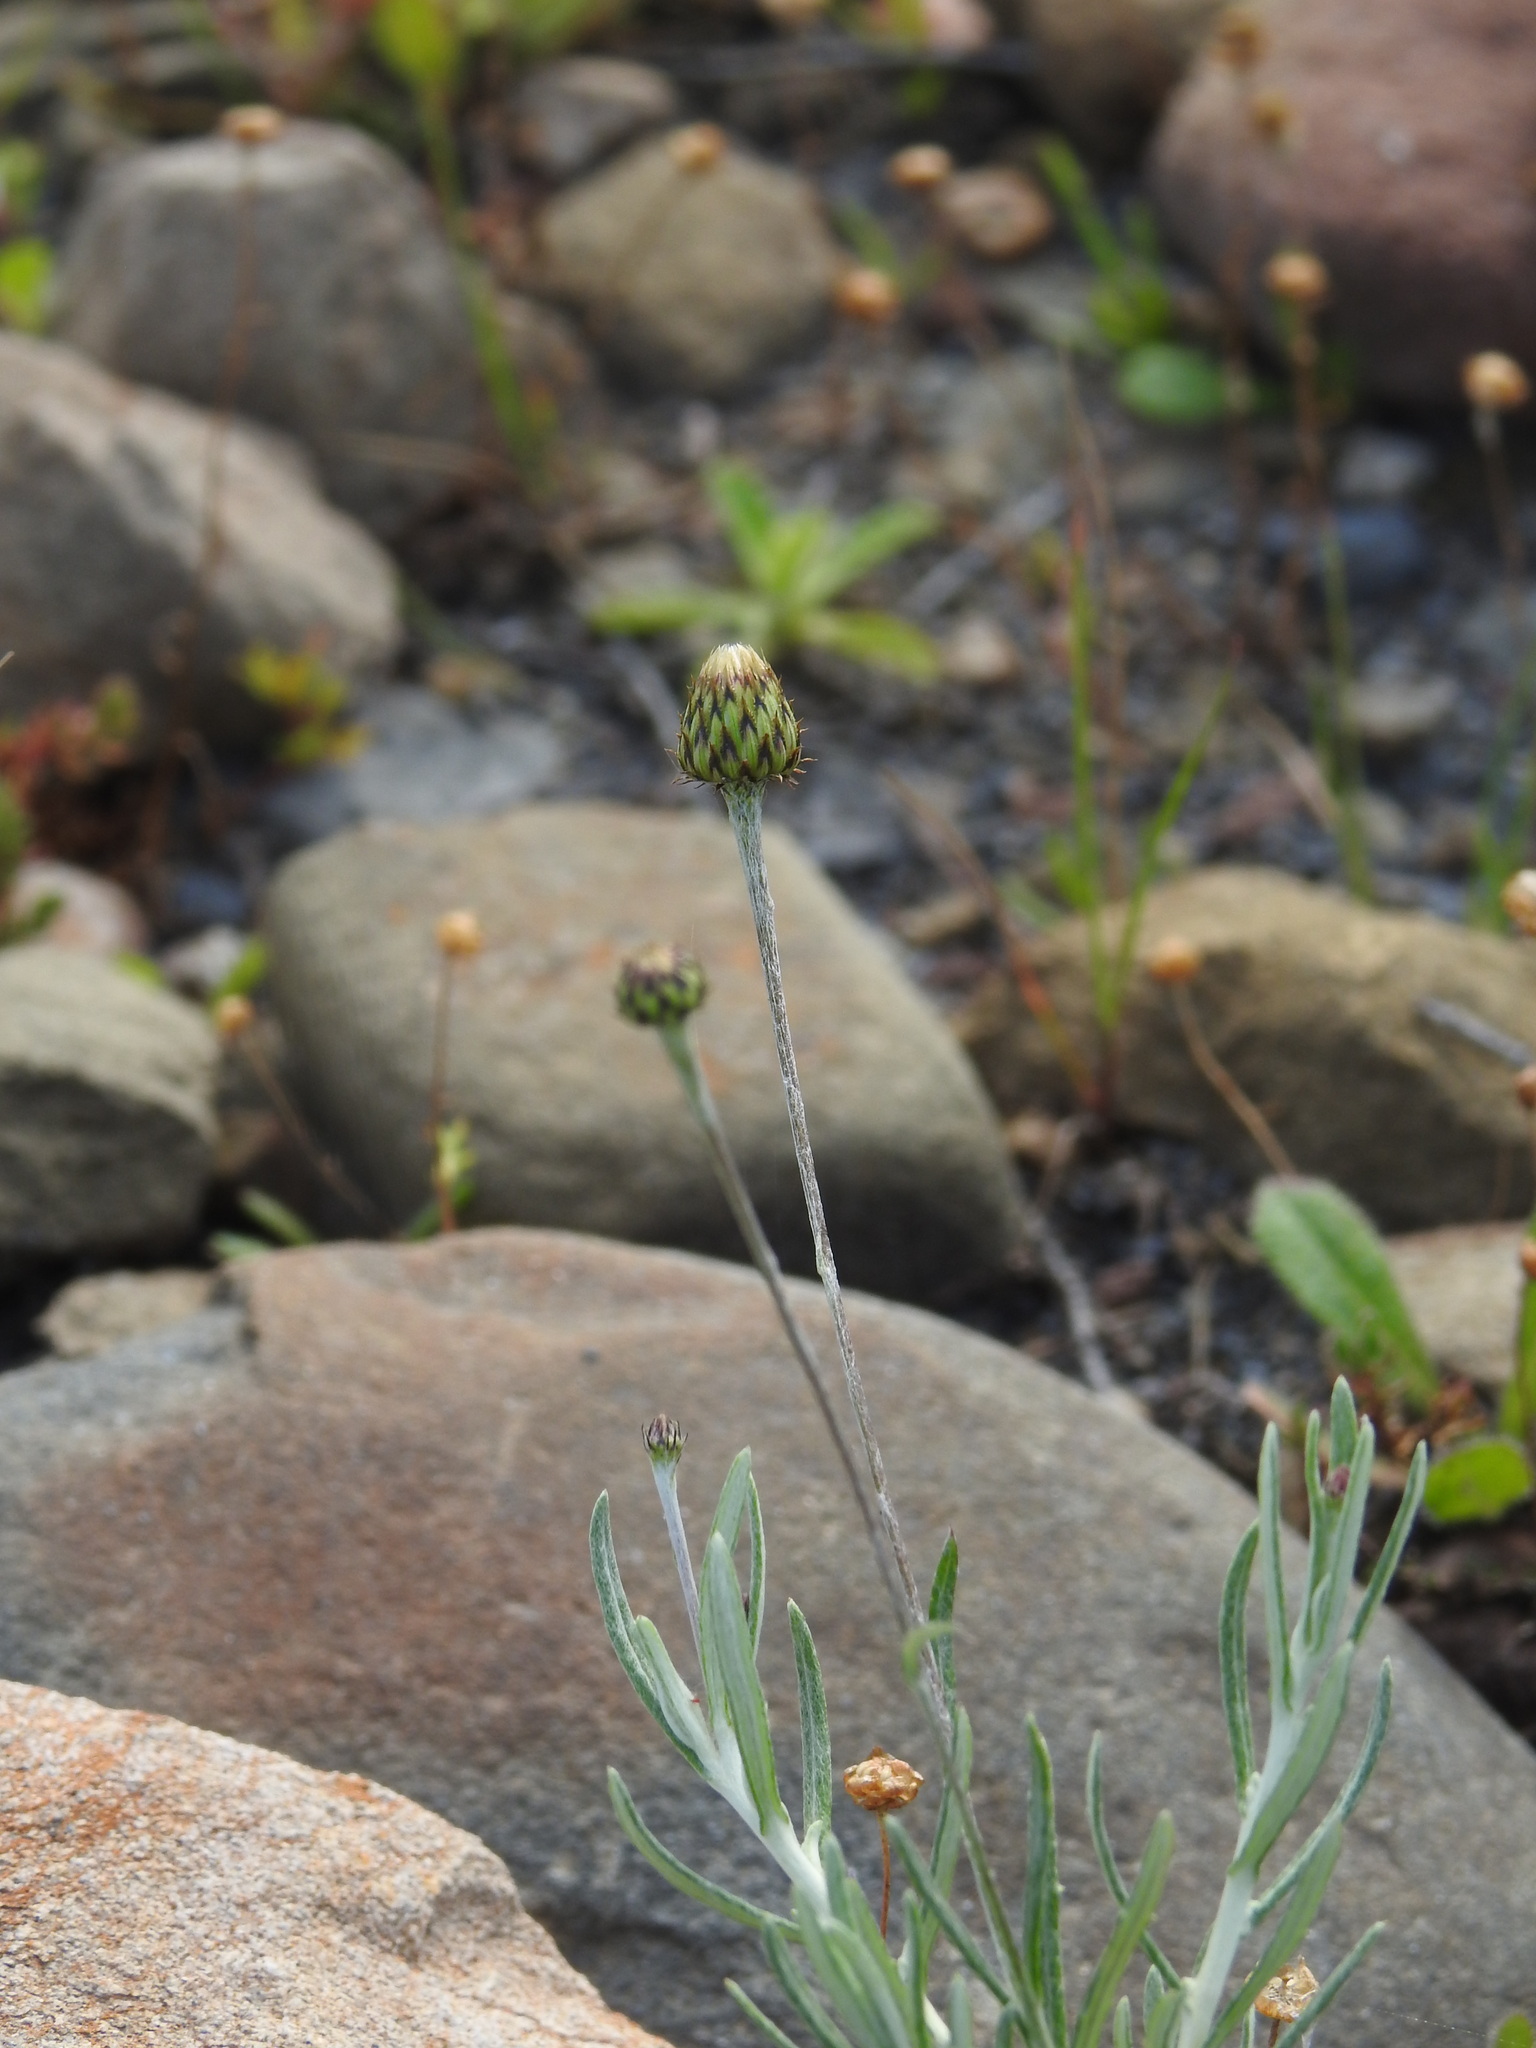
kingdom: Plantae
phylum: Tracheophyta
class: Magnoliopsida
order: Asterales
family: Asteraceae
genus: Phagnalon
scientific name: Phagnalon saxatile
